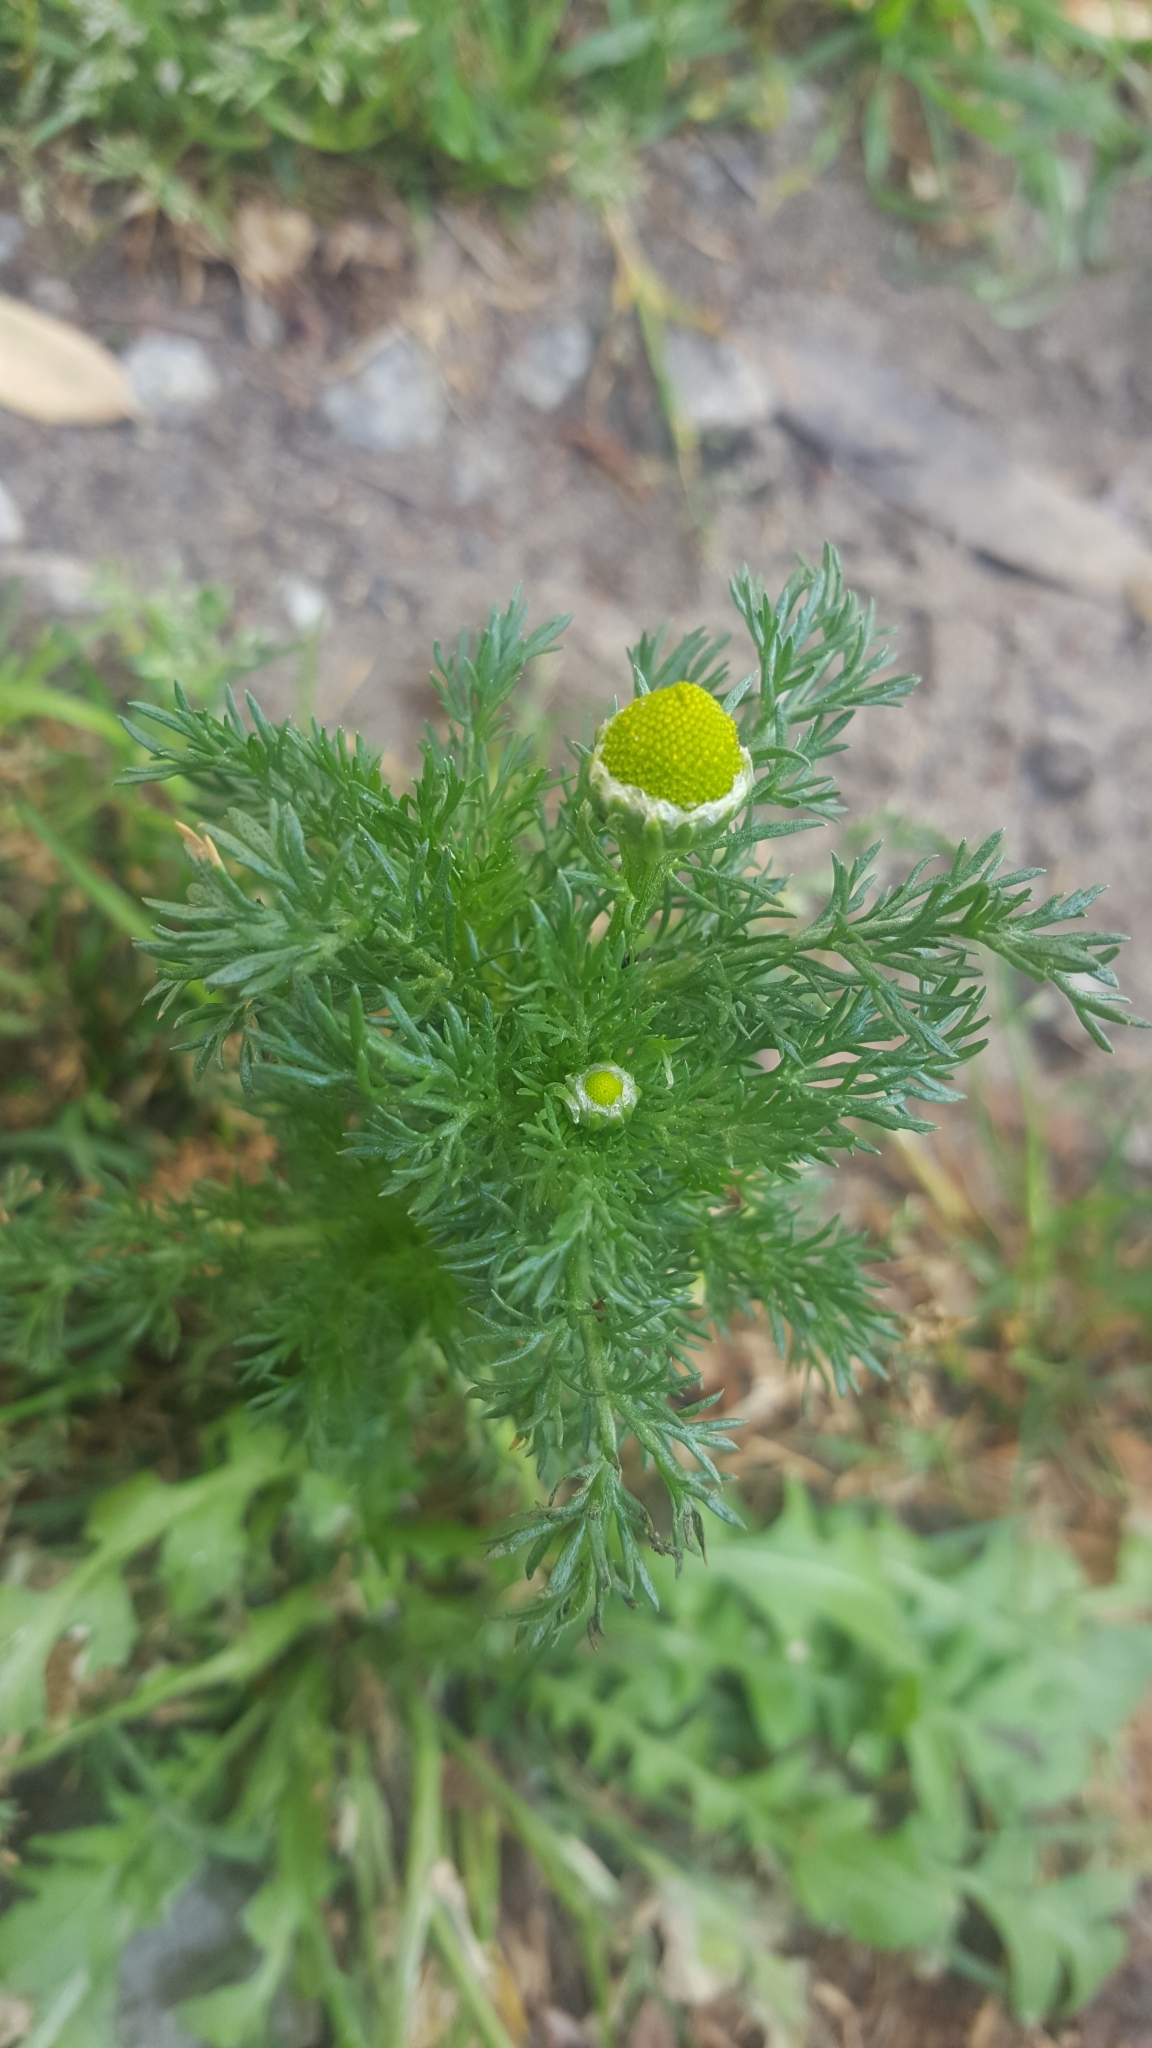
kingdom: Plantae
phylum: Tracheophyta
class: Magnoliopsida
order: Asterales
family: Asteraceae
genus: Matricaria
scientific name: Matricaria discoidea
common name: Disc mayweed
